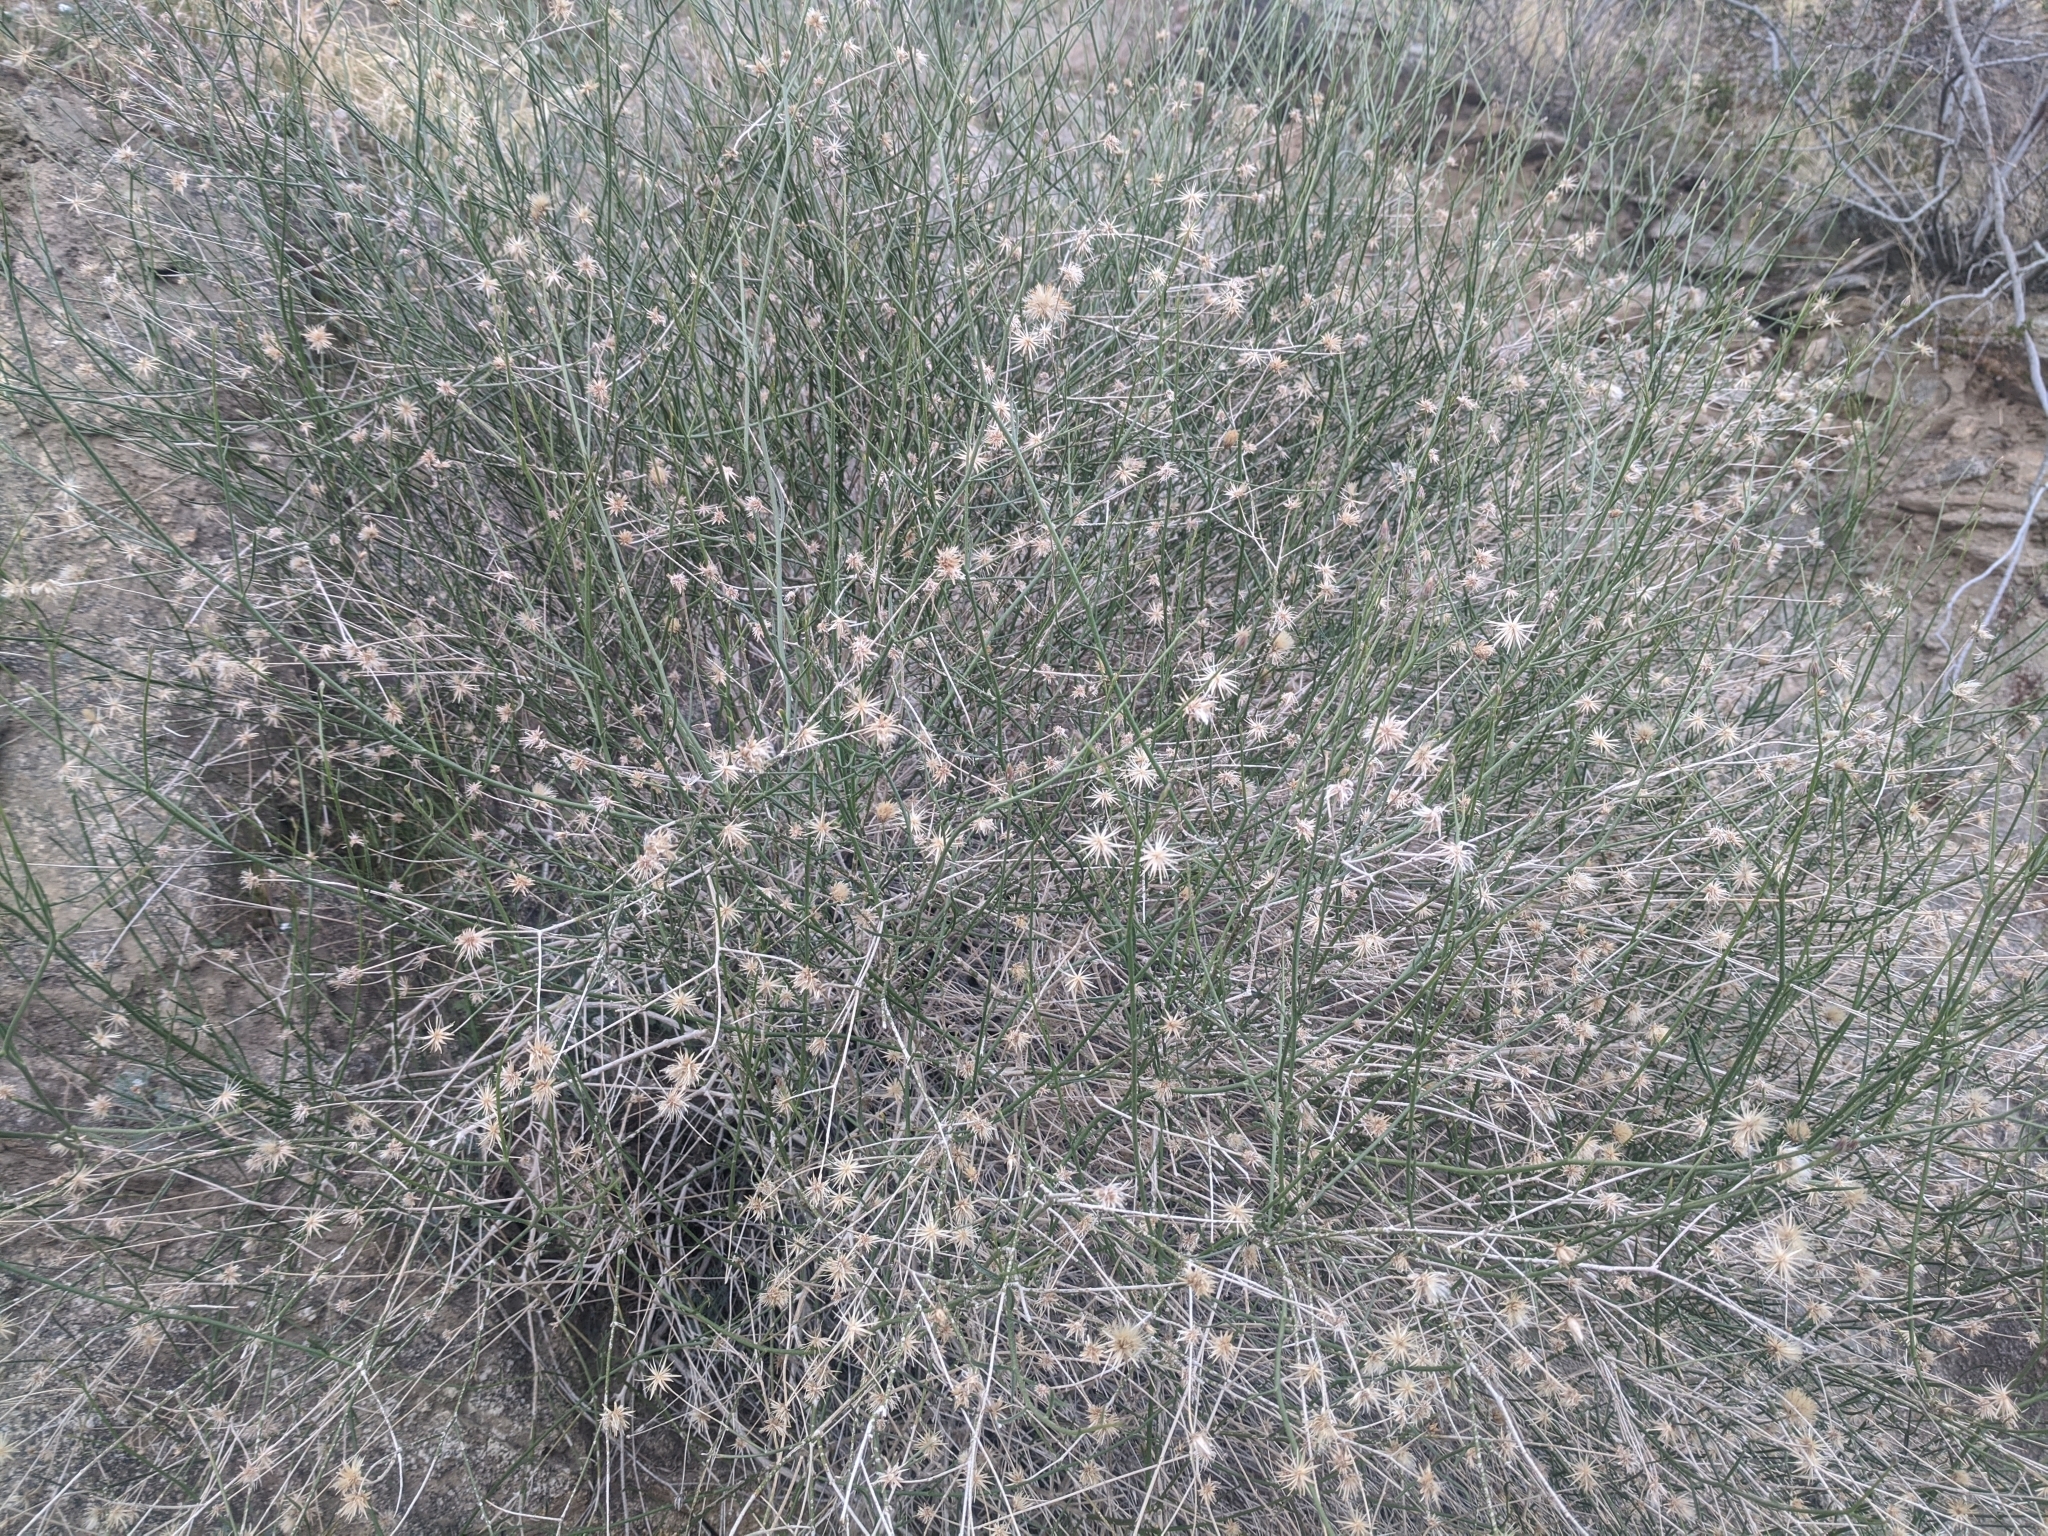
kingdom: Plantae
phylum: Tracheophyta
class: Magnoliopsida
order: Asterales
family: Asteraceae
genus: Bebbia
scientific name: Bebbia juncea
